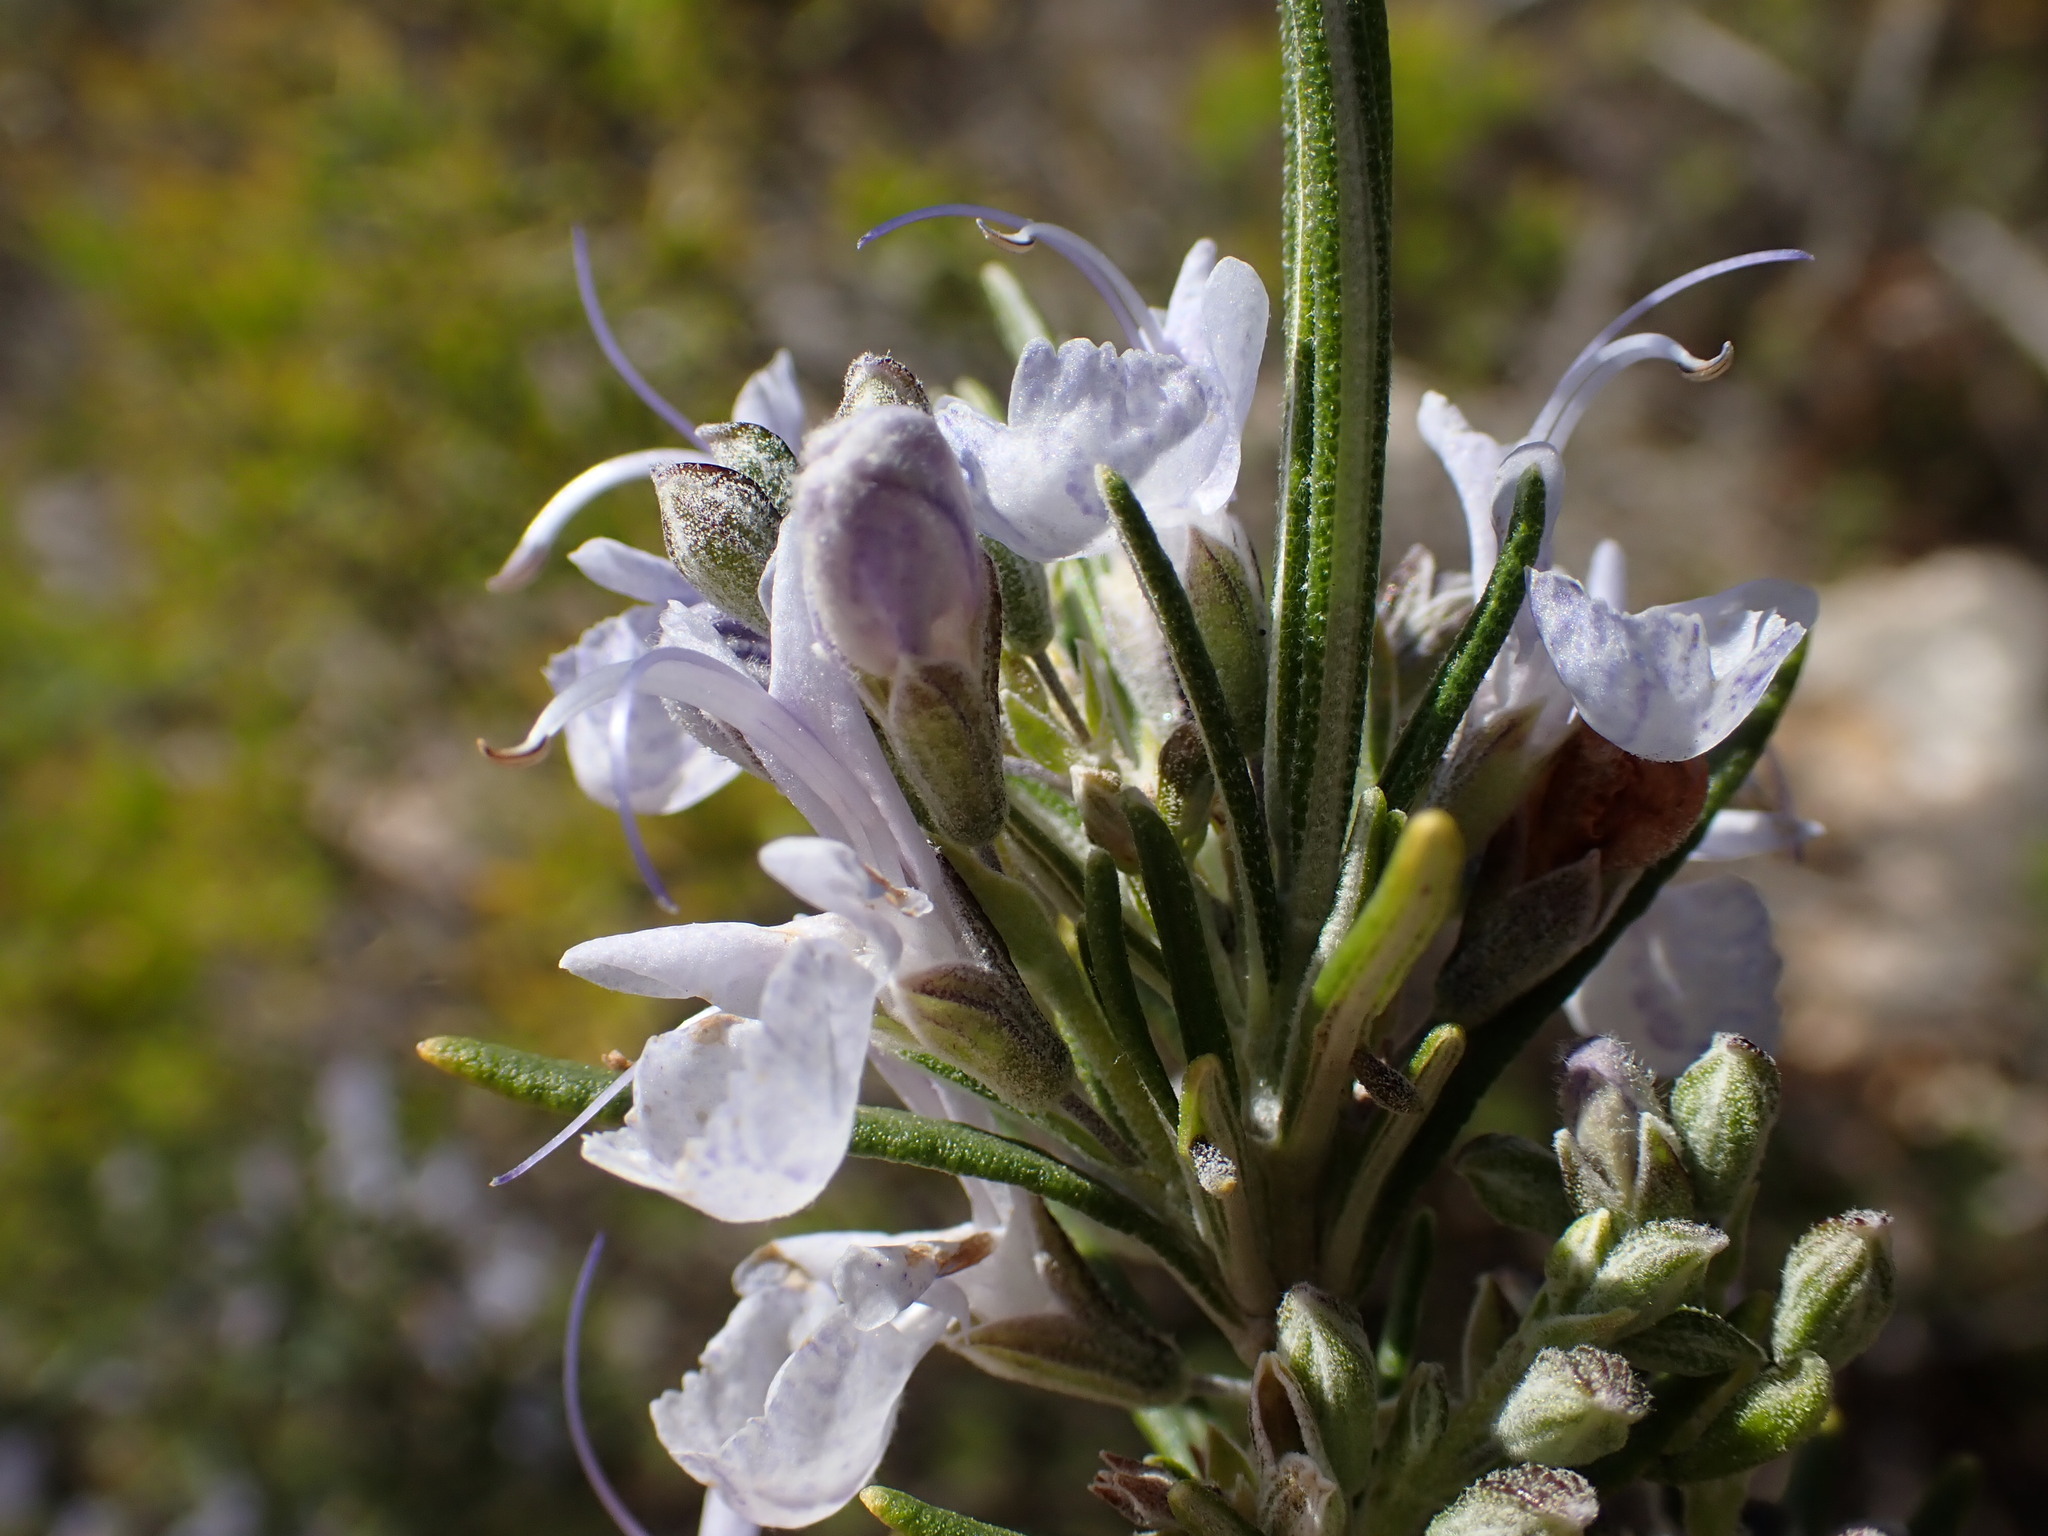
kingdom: Plantae
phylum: Tracheophyta
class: Magnoliopsida
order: Lamiales
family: Lamiaceae
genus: Salvia
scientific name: Salvia rosmarinus
